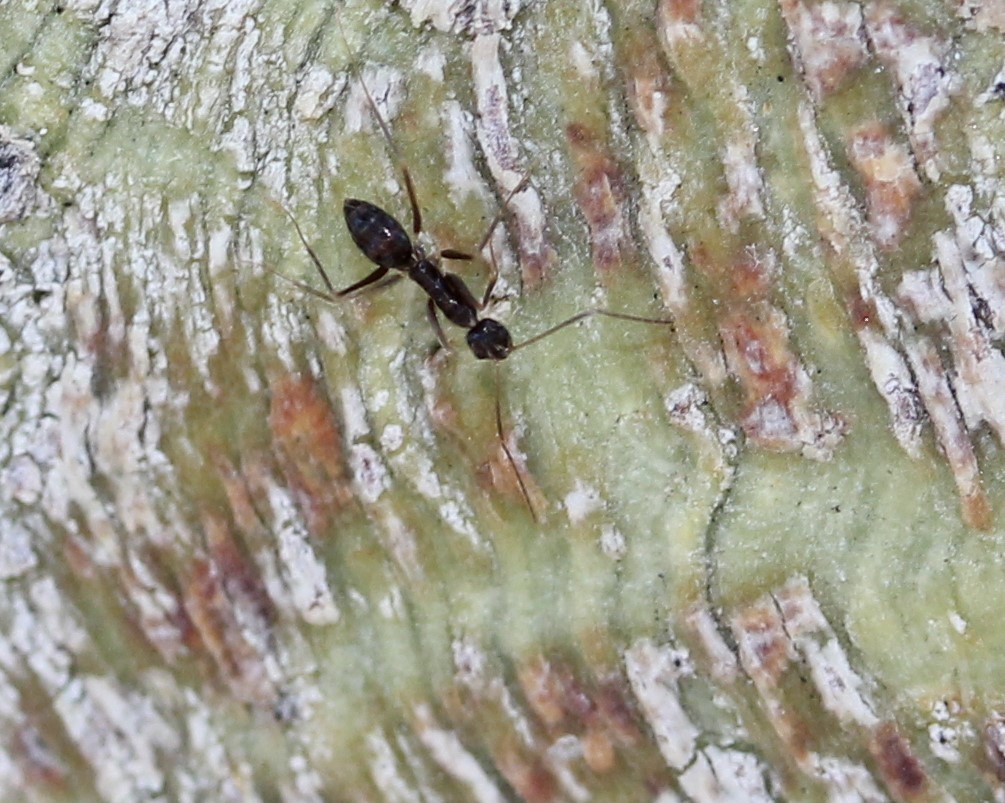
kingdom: Animalia
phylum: Arthropoda
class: Insecta
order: Hymenoptera
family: Formicidae
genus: Paratrechina
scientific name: Paratrechina longicornis
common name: Longhorned crazy ant
